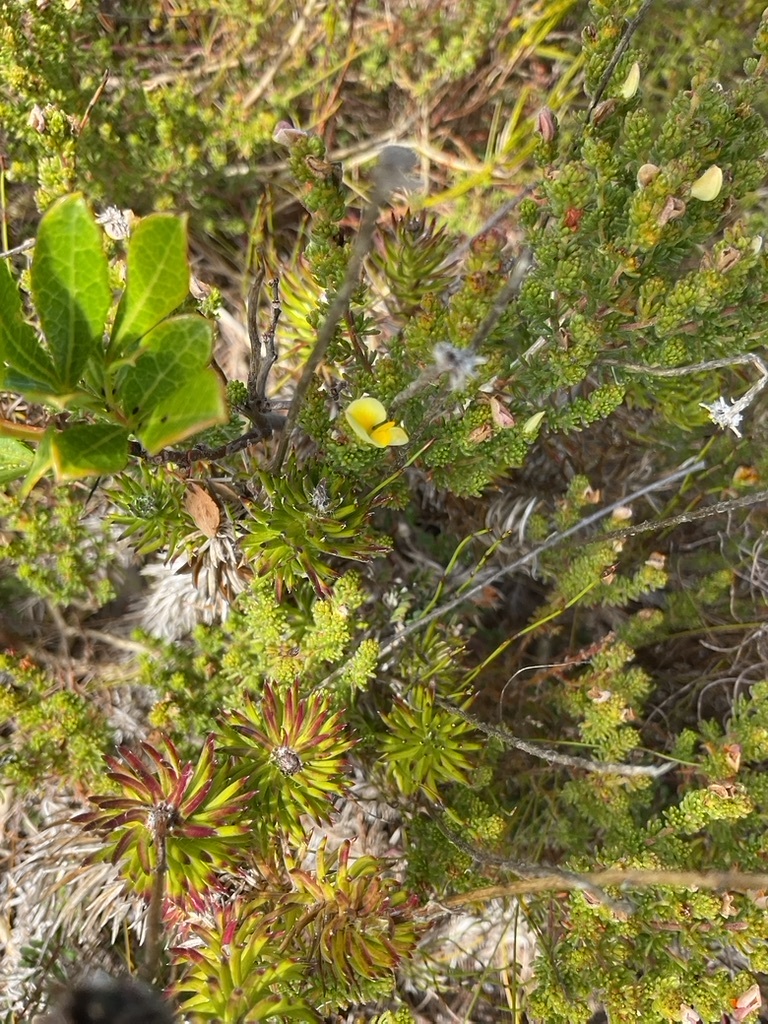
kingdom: Plantae
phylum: Tracheophyta
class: Magnoliopsida
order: Fabales
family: Fabaceae
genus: Aspalathus
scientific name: Aspalathus salteri
